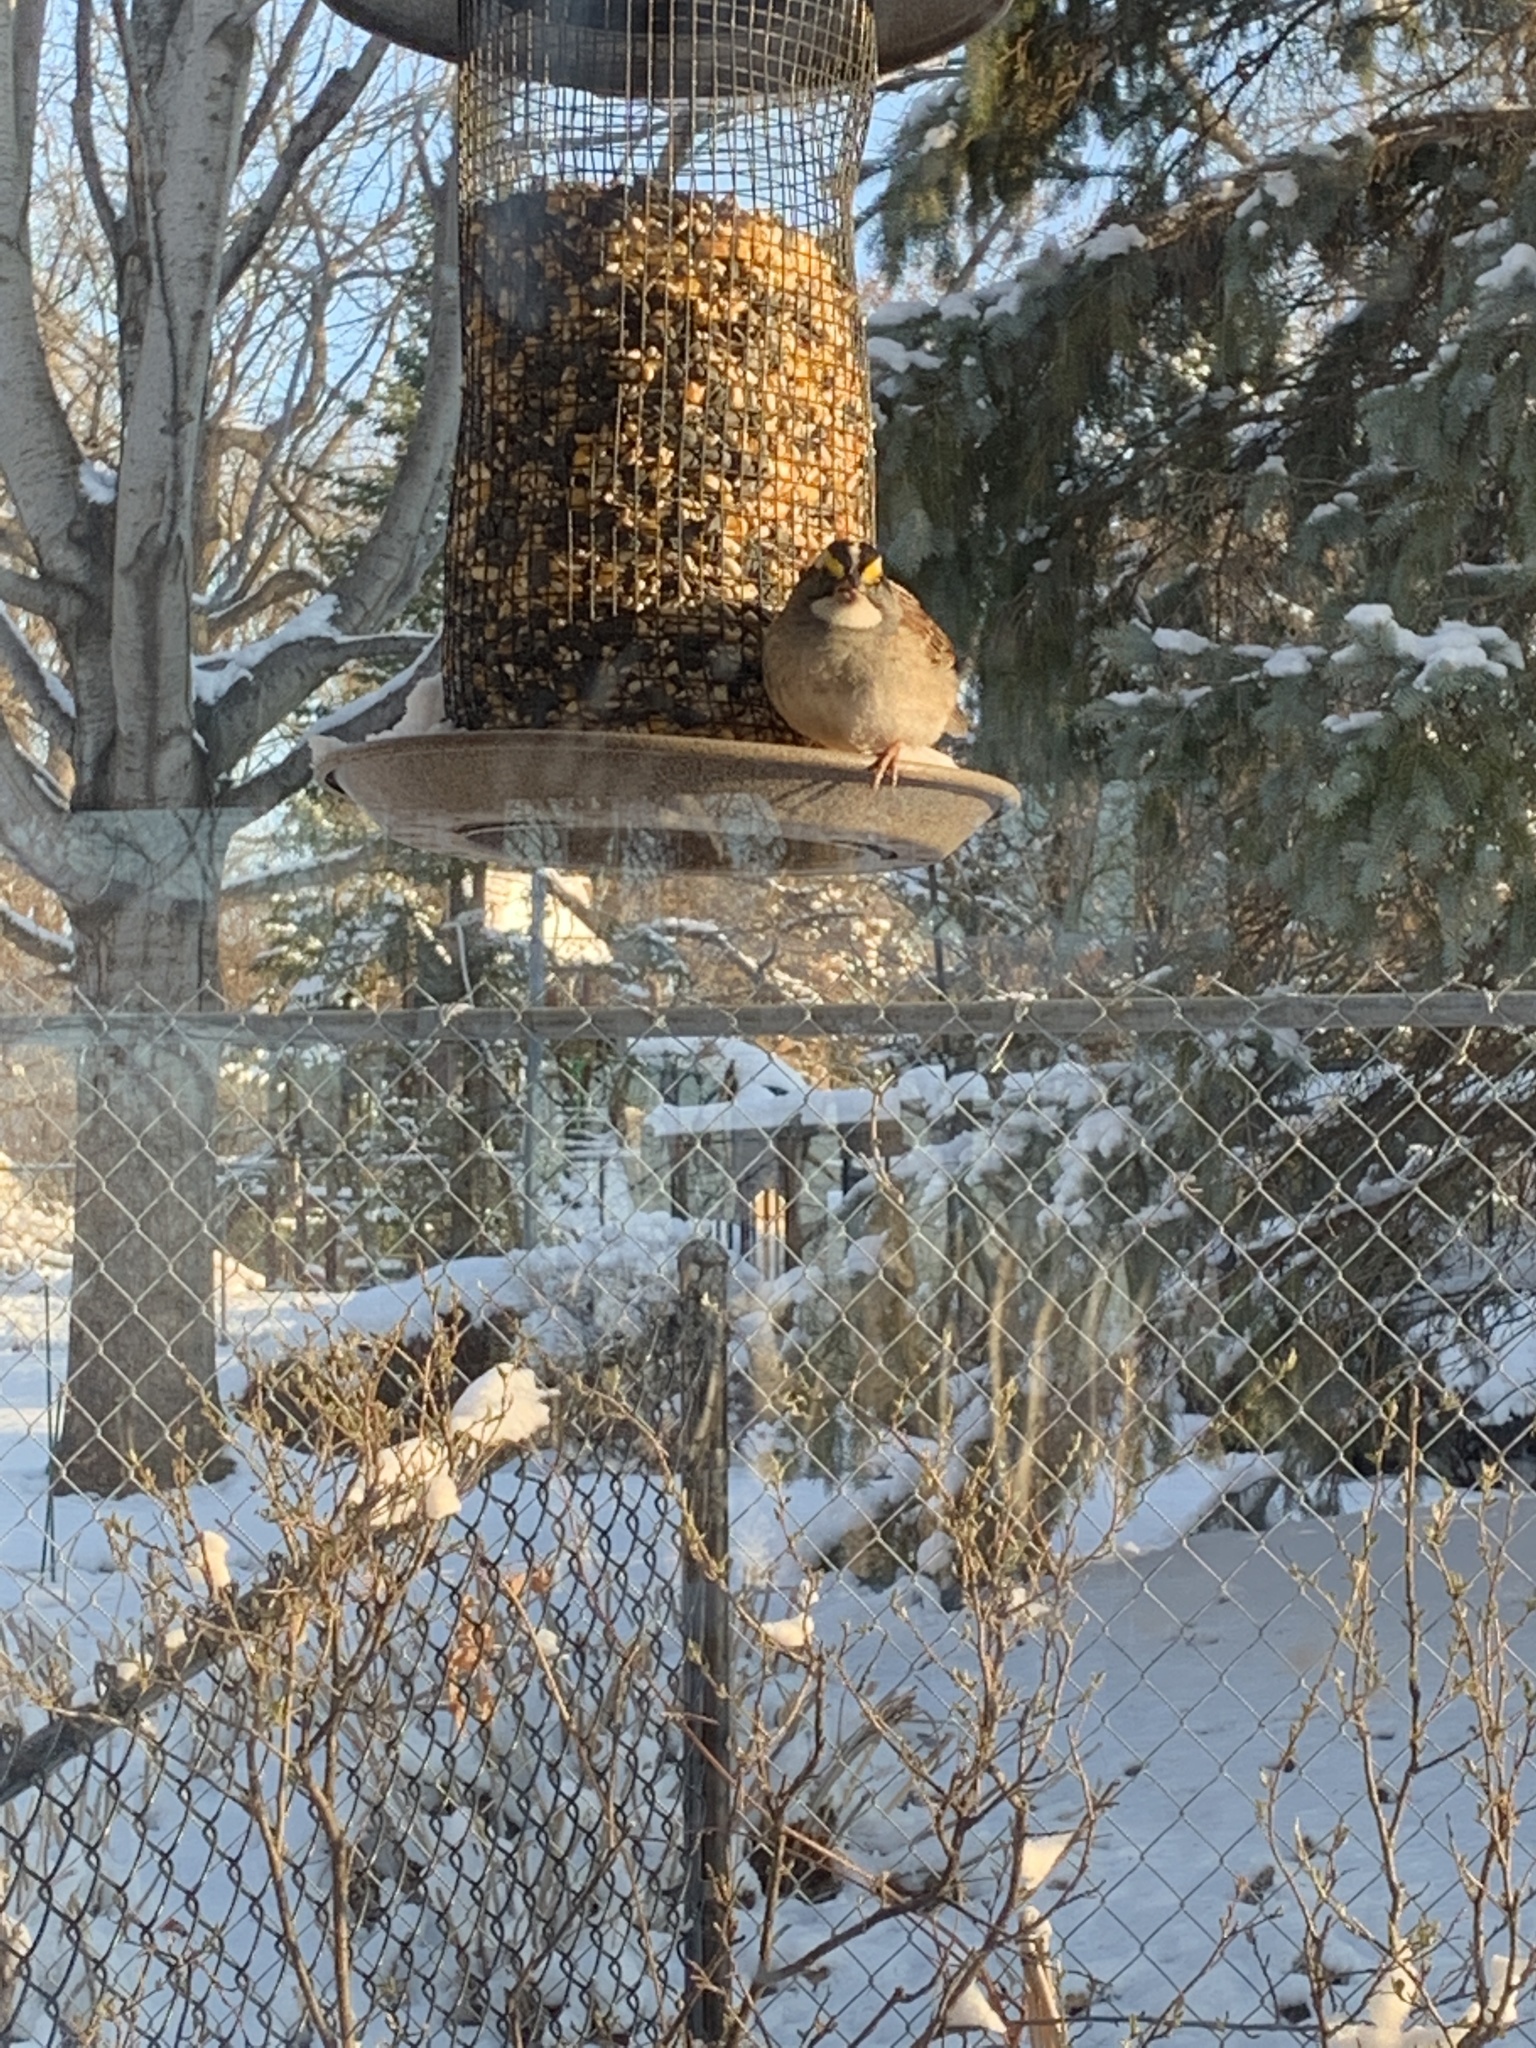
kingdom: Animalia
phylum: Chordata
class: Aves
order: Passeriformes
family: Passerellidae
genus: Zonotrichia
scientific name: Zonotrichia albicollis
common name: White-throated sparrow
